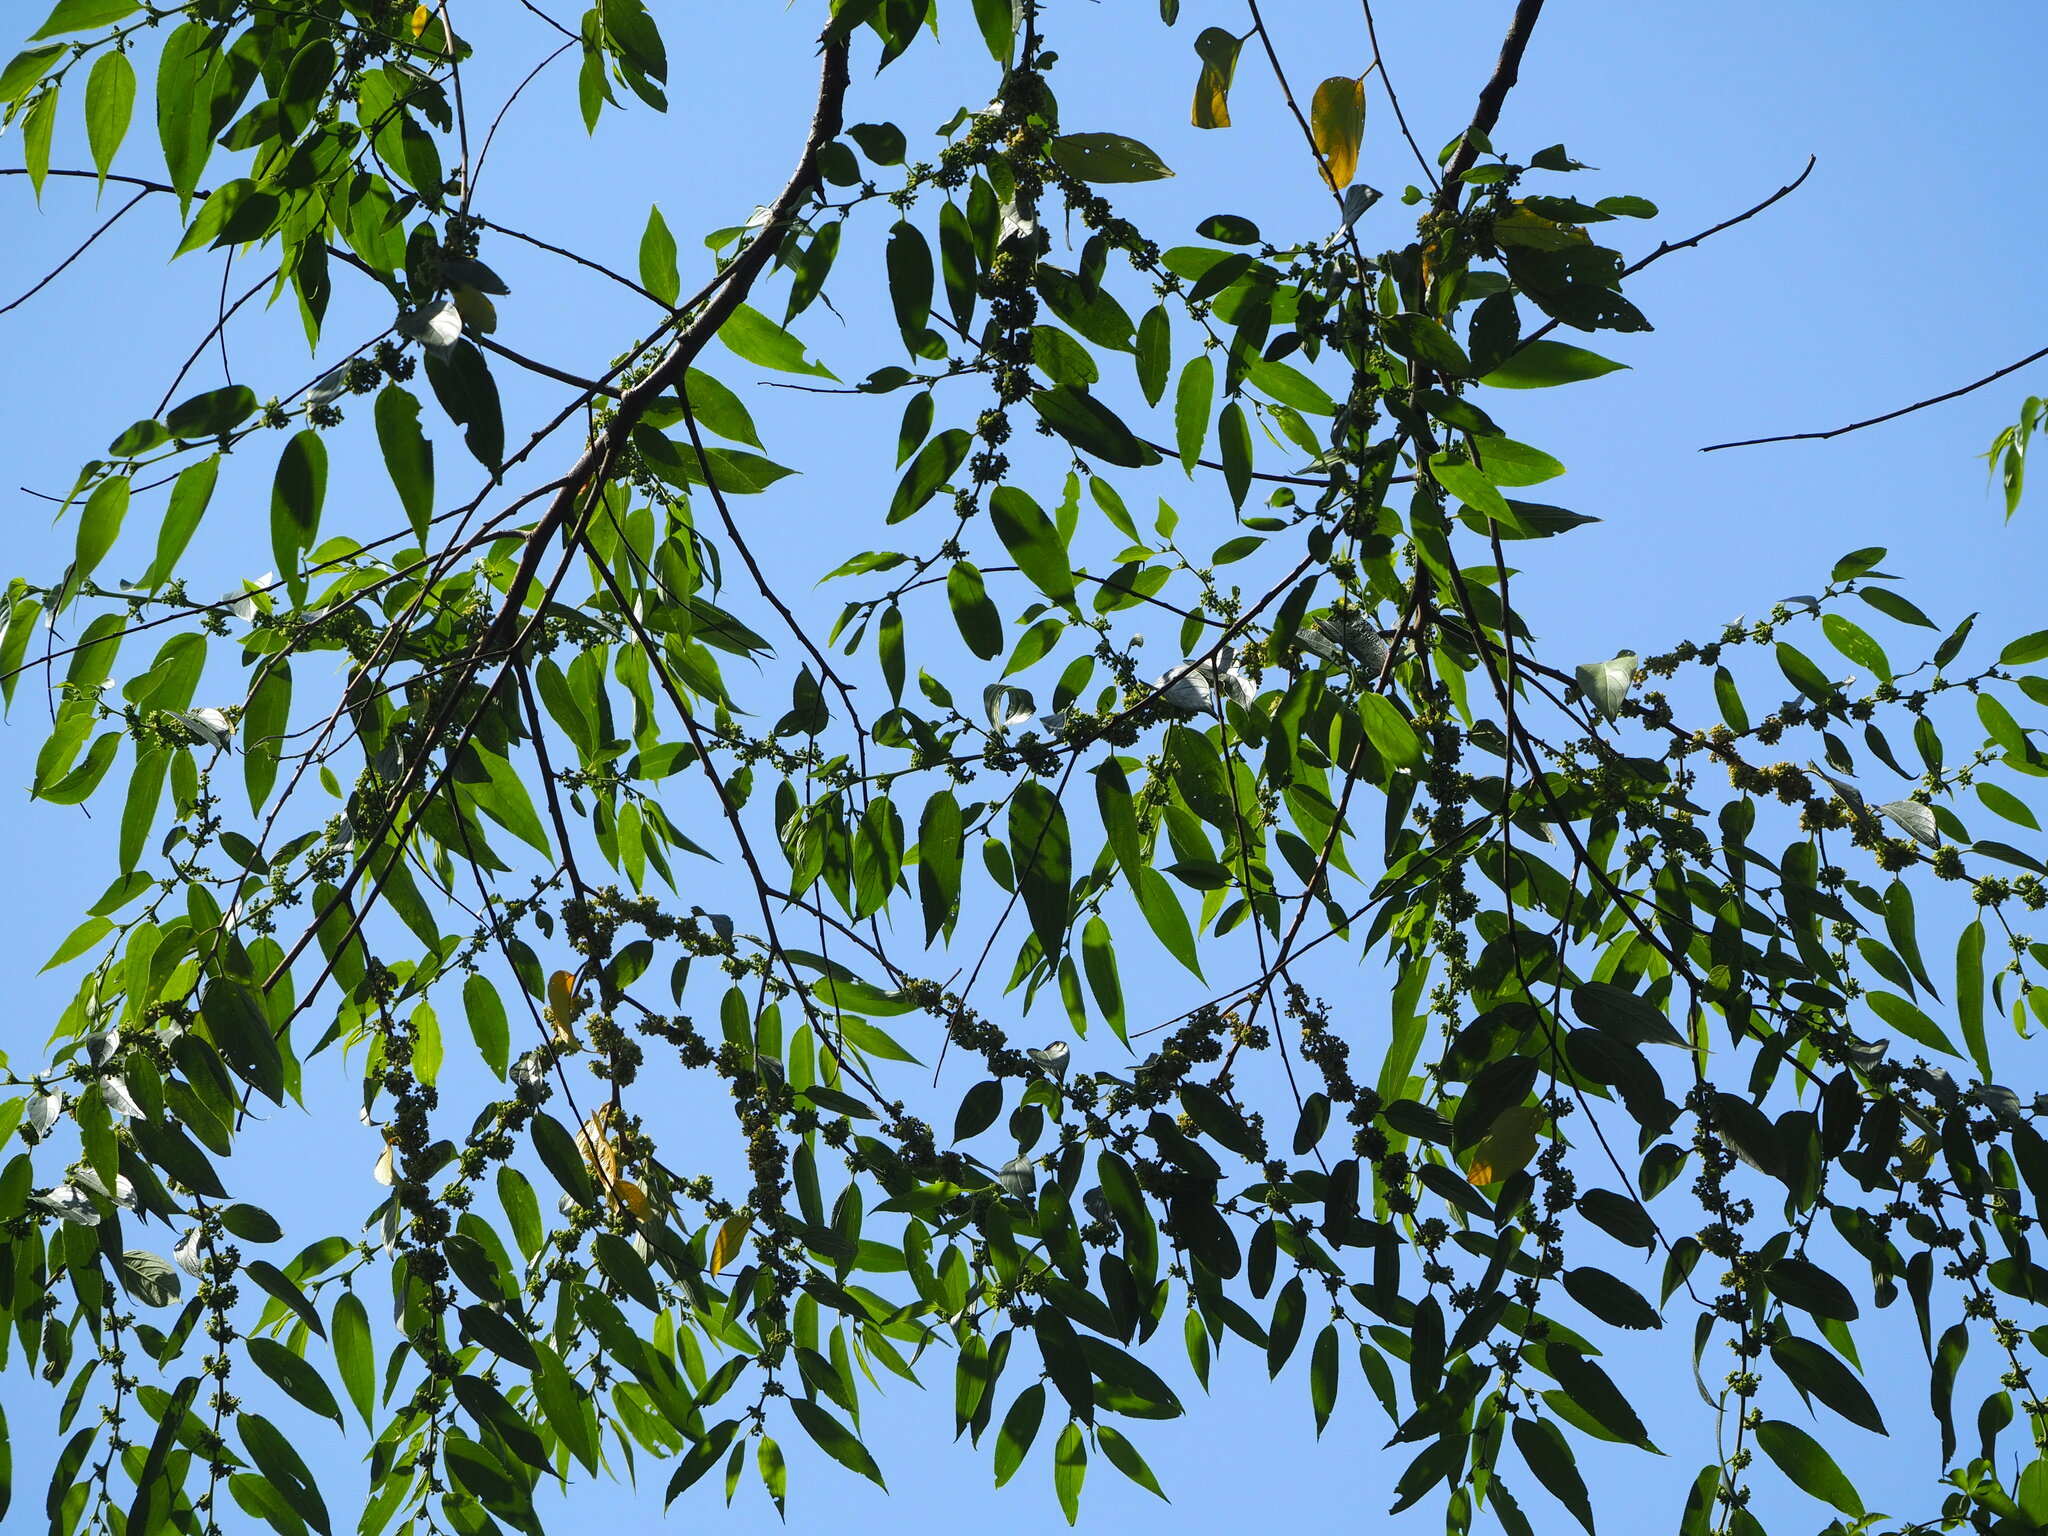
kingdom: Plantae
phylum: Tracheophyta
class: Magnoliopsida
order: Rosales
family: Cannabaceae
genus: Trema
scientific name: Trema orientale
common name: Indian charcoal tree
